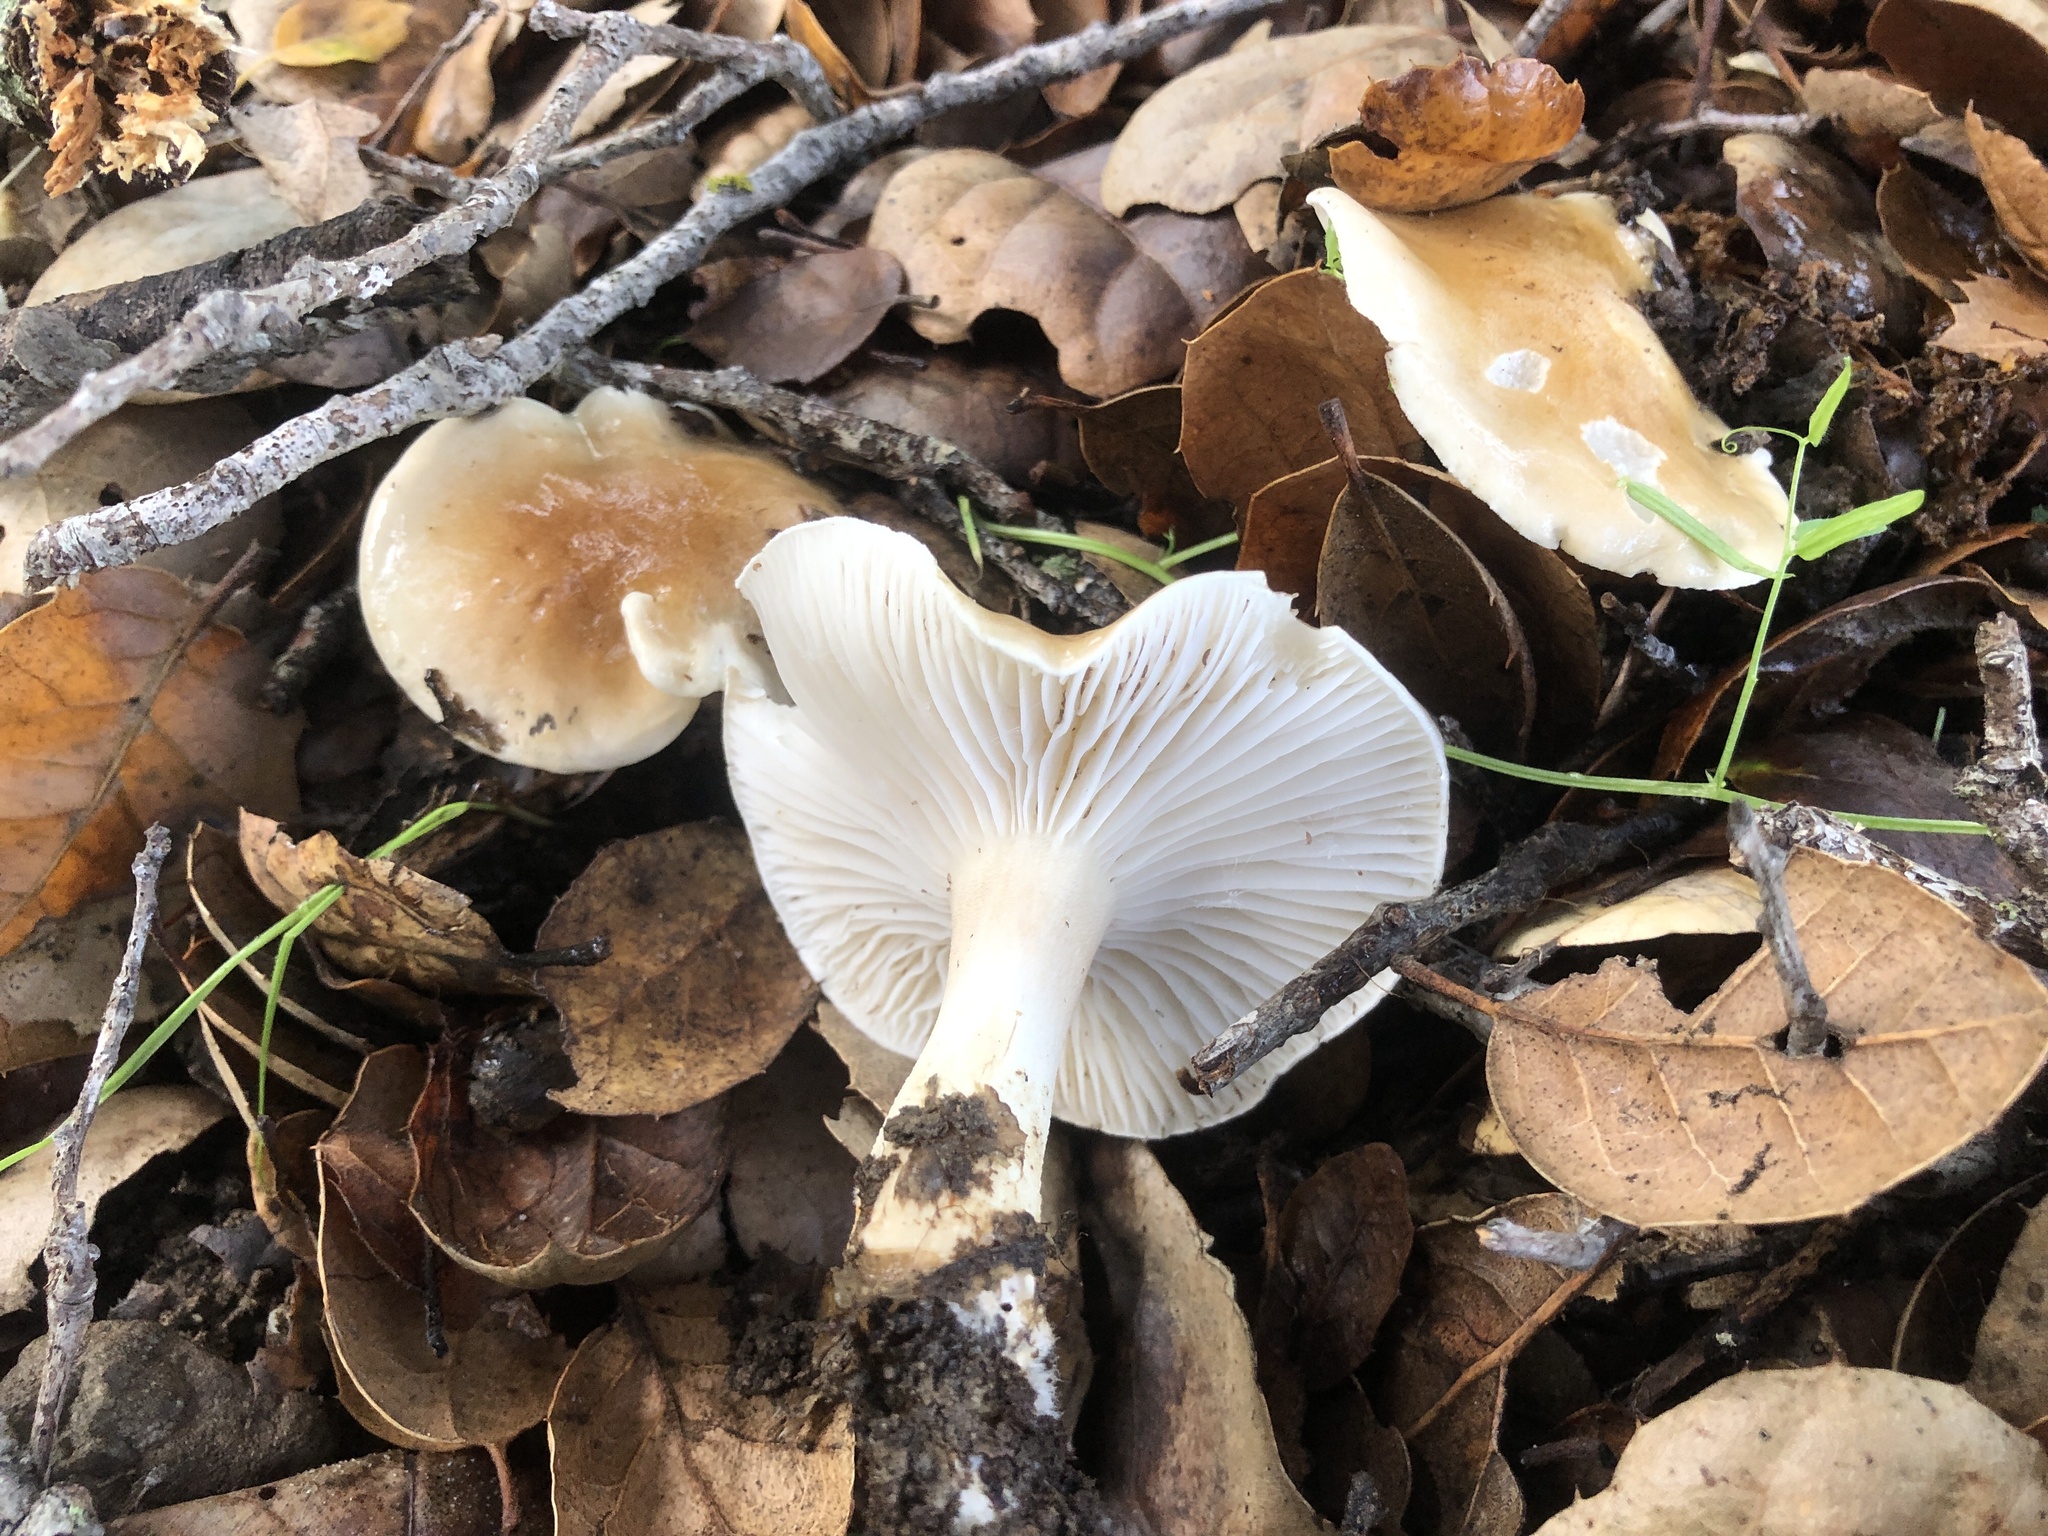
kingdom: Fungi
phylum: Basidiomycota
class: Agaricomycetes
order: Agaricales
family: Hygrophoraceae
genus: Hygrophorus
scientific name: Hygrophorus roseobrunneus
